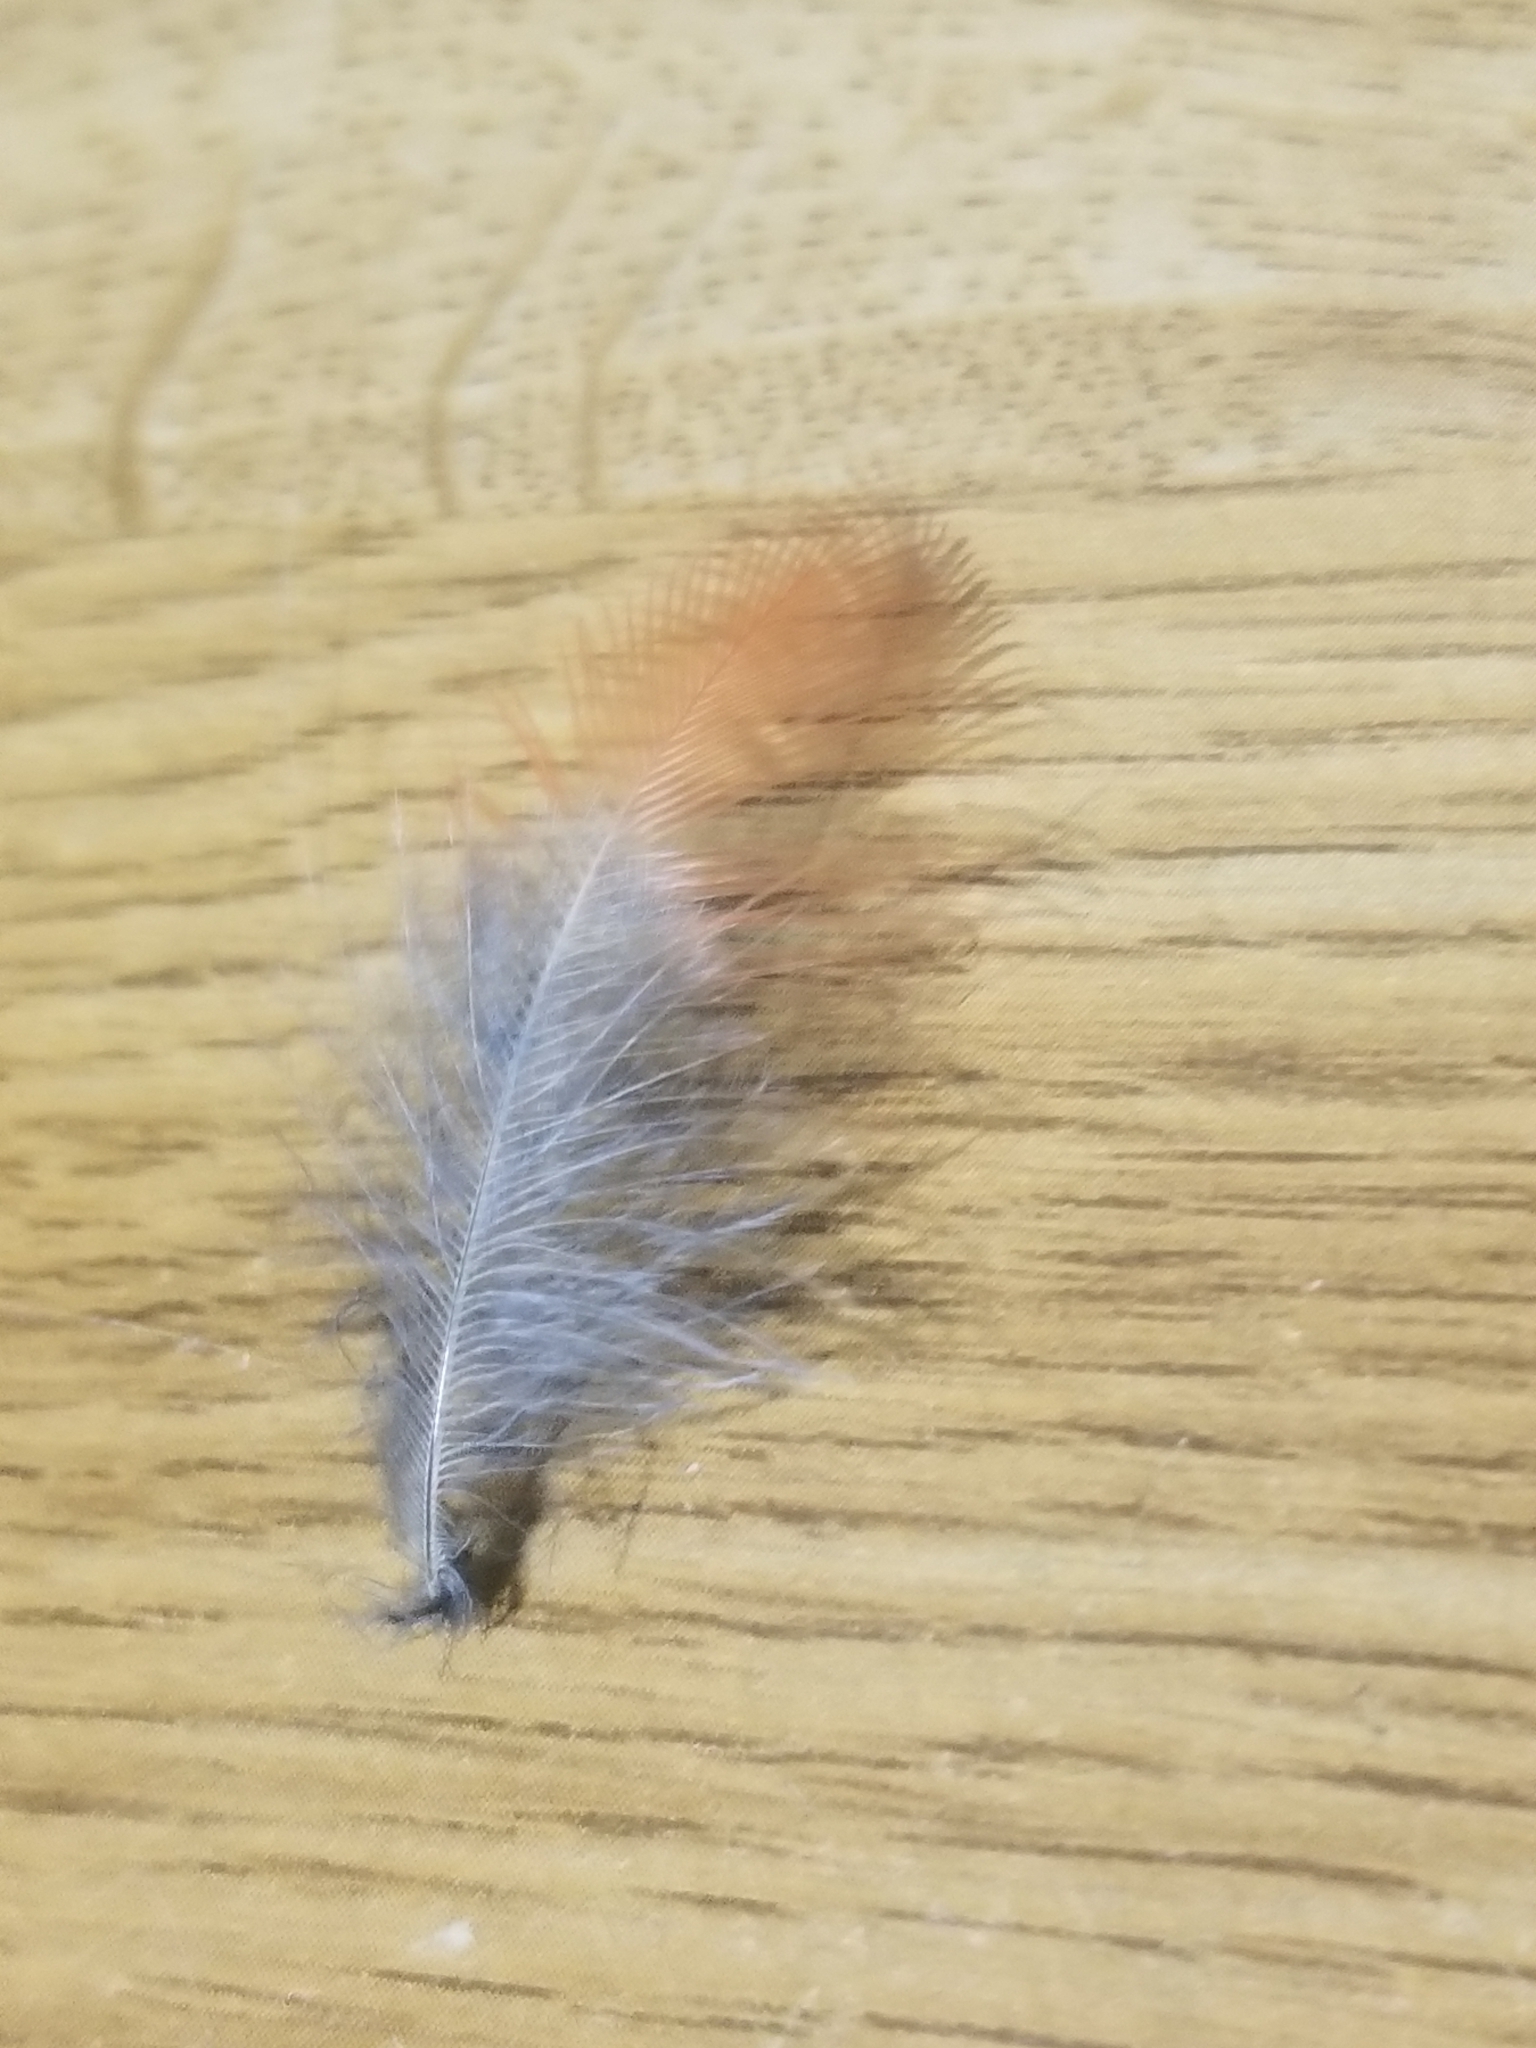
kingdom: Animalia
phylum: Chordata
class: Aves
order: Passeriformes
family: Cardinalidae
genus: Cardinalis
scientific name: Cardinalis cardinalis
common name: Northern cardinal
